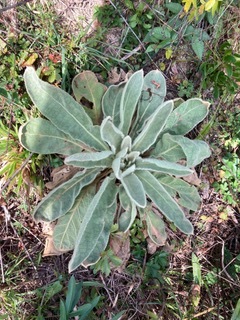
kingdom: Plantae
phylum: Tracheophyta
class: Magnoliopsida
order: Lamiales
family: Scrophulariaceae
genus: Verbascum
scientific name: Verbascum thapsus
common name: Common mullein
